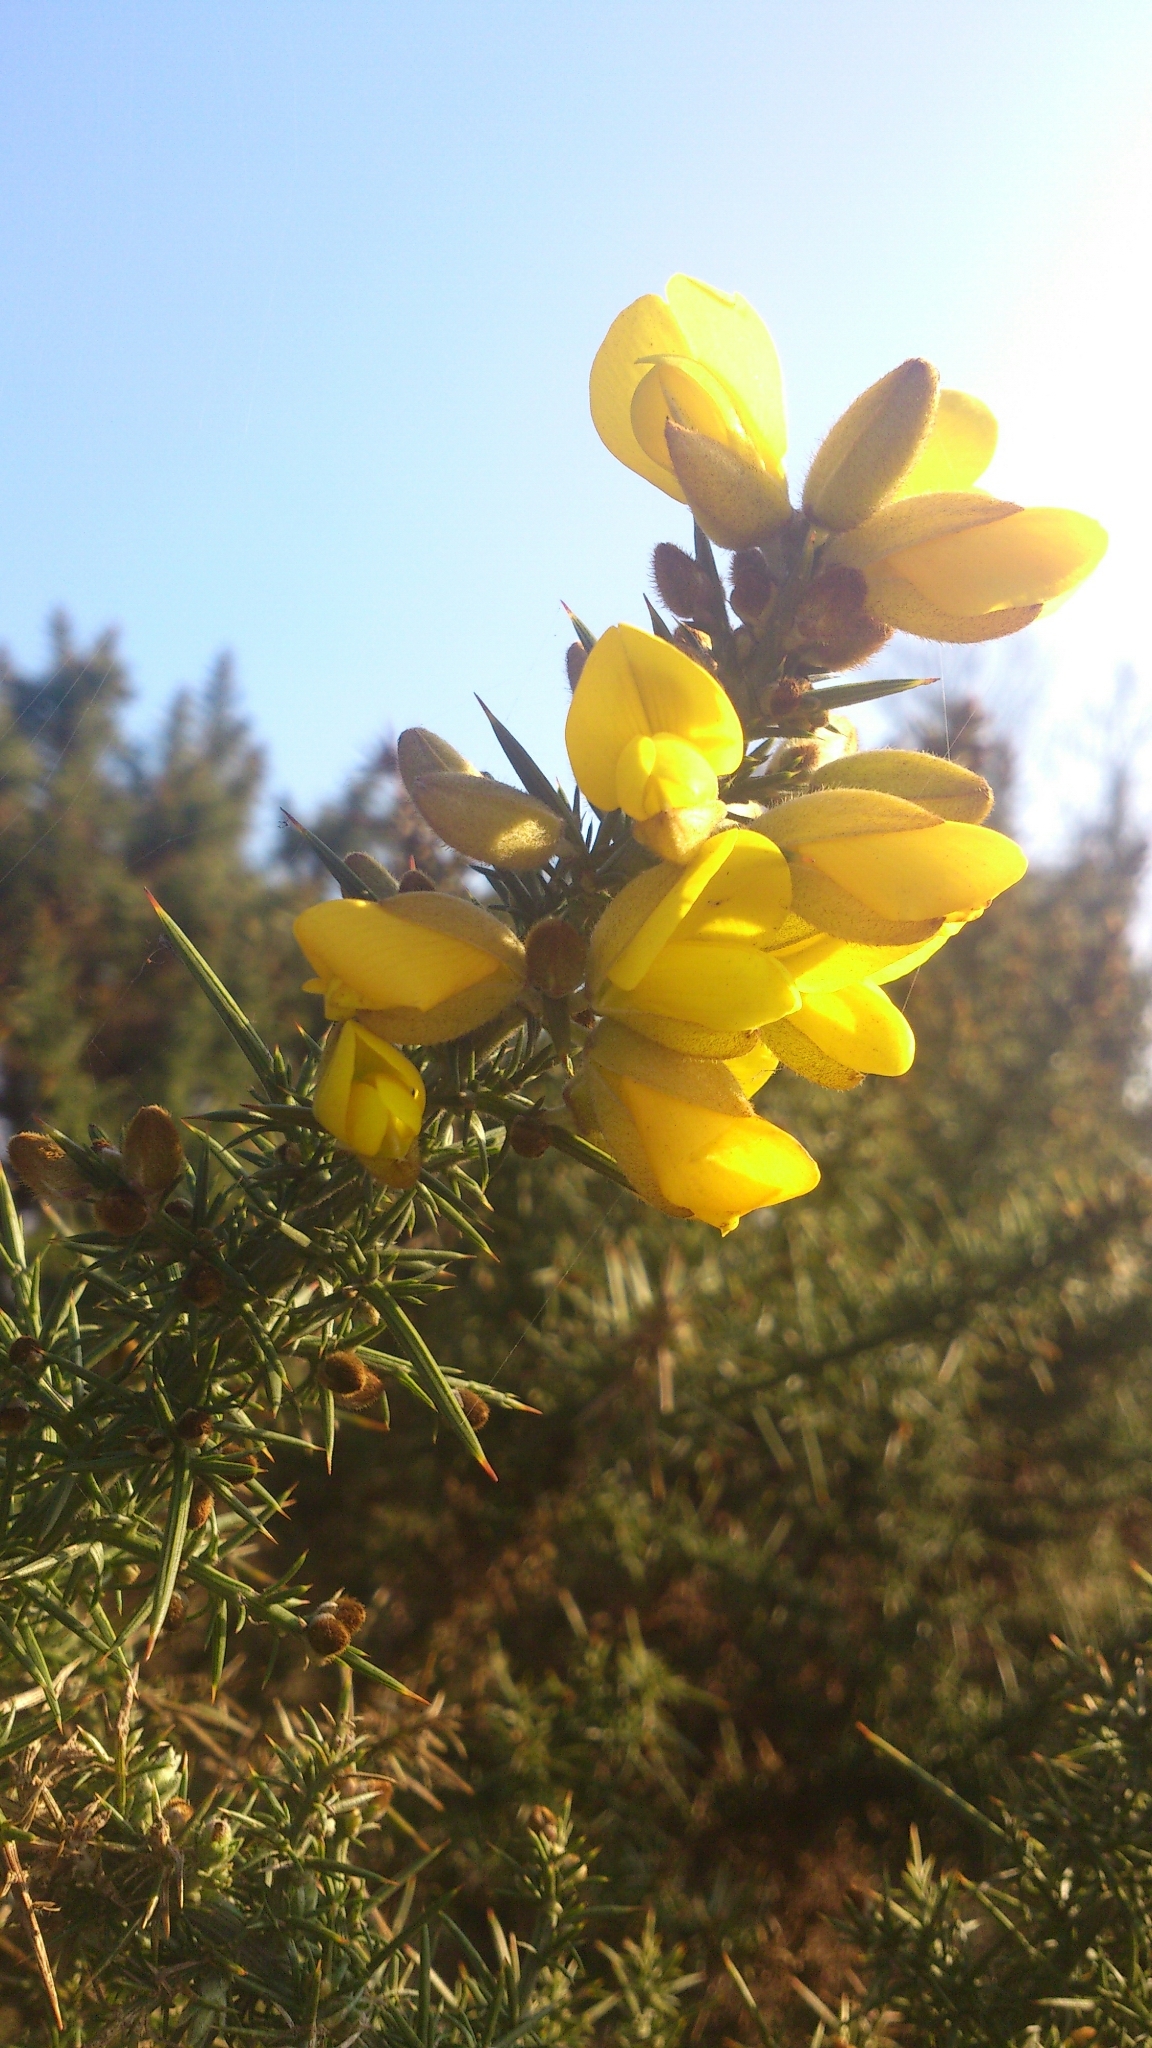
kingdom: Plantae
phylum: Tracheophyta
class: Magnoliopsida
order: Fabales
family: Fabaceae
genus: Ulex
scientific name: Ulex europaeus
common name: Common gorse
